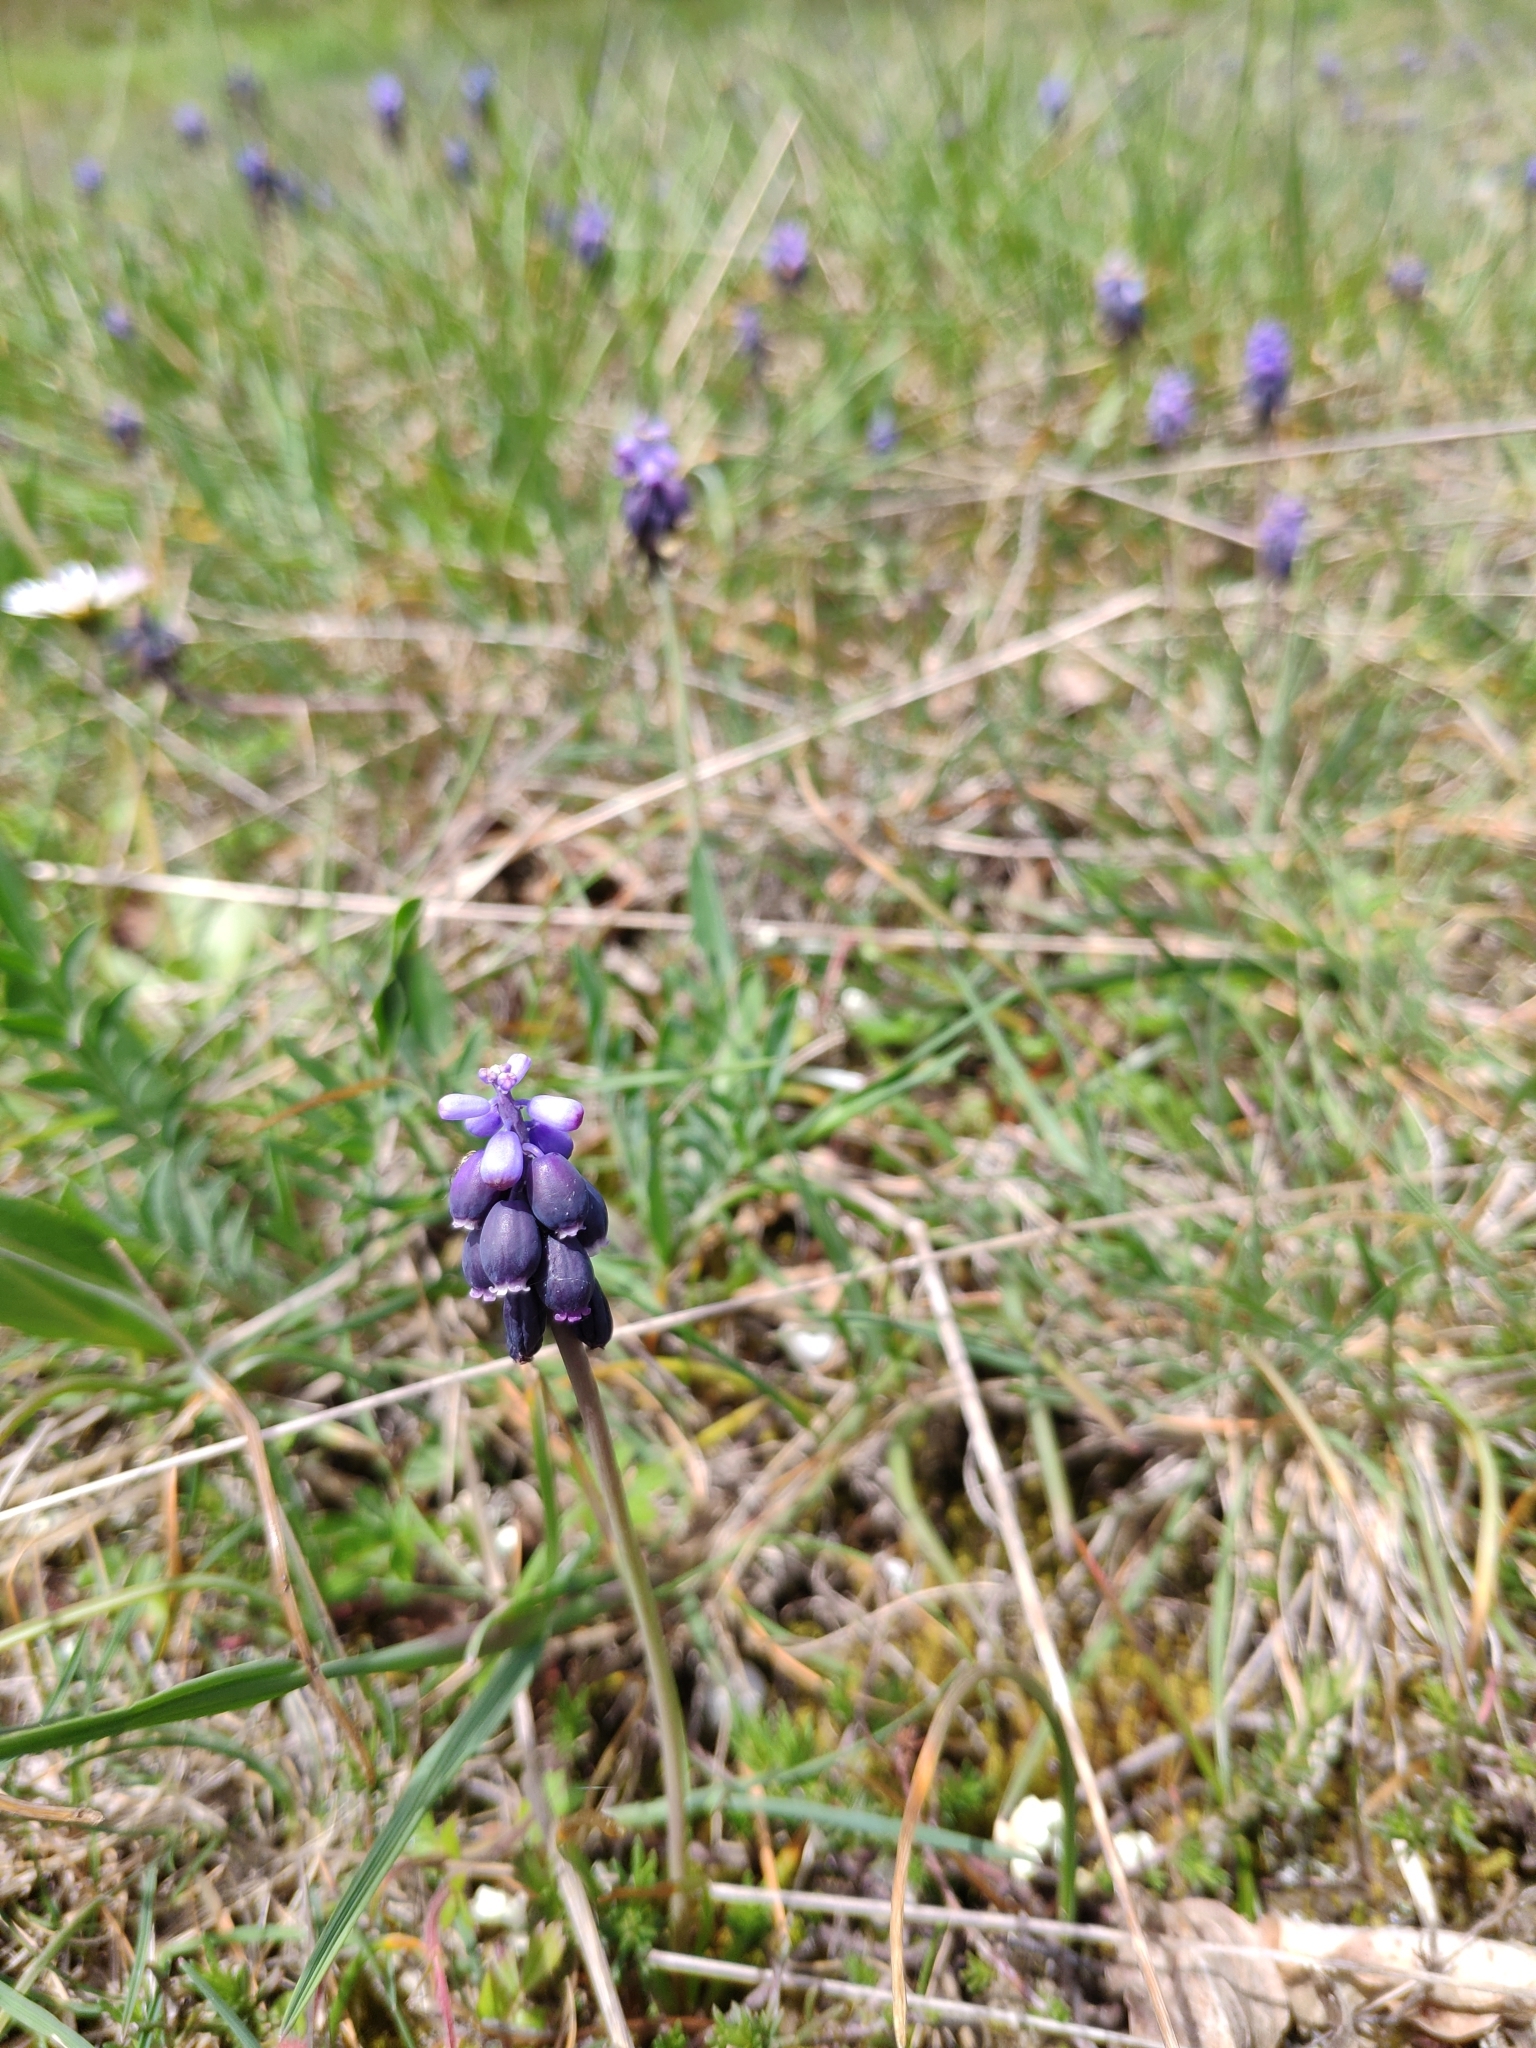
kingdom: Plantae
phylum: Tracheophyta
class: Liliopsida
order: Asparagales
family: Asparagaceae
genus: Muscari
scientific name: Muscari neglectum
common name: Grape-hyacinth
